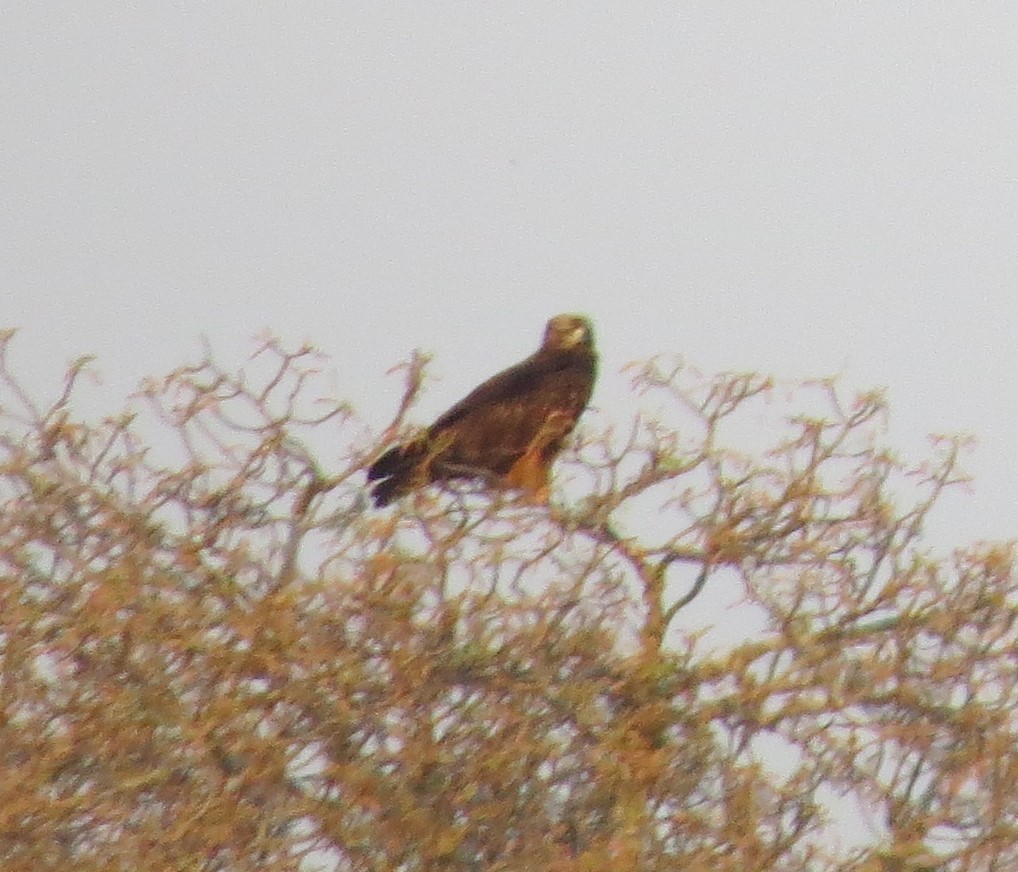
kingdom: Animalia
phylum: Chordata
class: Aves
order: Accipitriformes
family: Accipitridae
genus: Aquila
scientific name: Aquila rapax
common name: Tawny eagle
